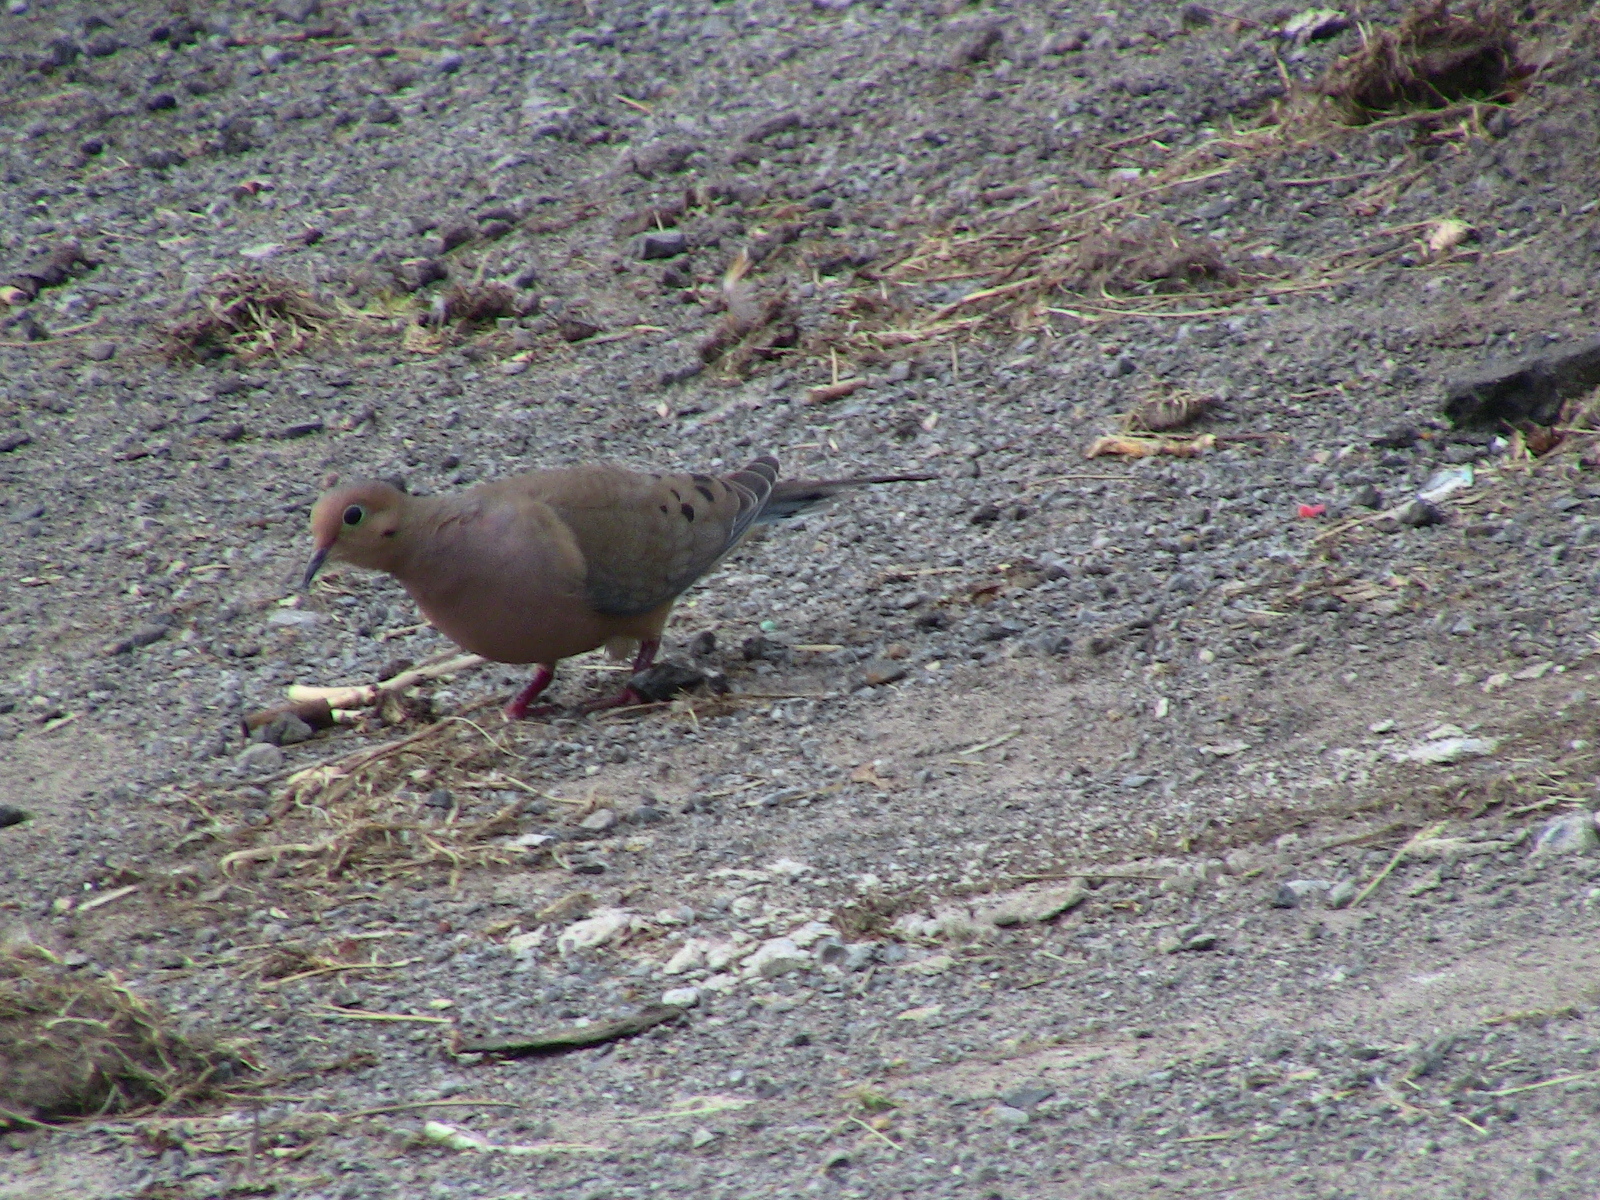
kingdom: Animalia
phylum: Chordata
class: Aves
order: Columbiformes
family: Columbidae
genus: Zenaida
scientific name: Zenaida macroura
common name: Mourning dove
